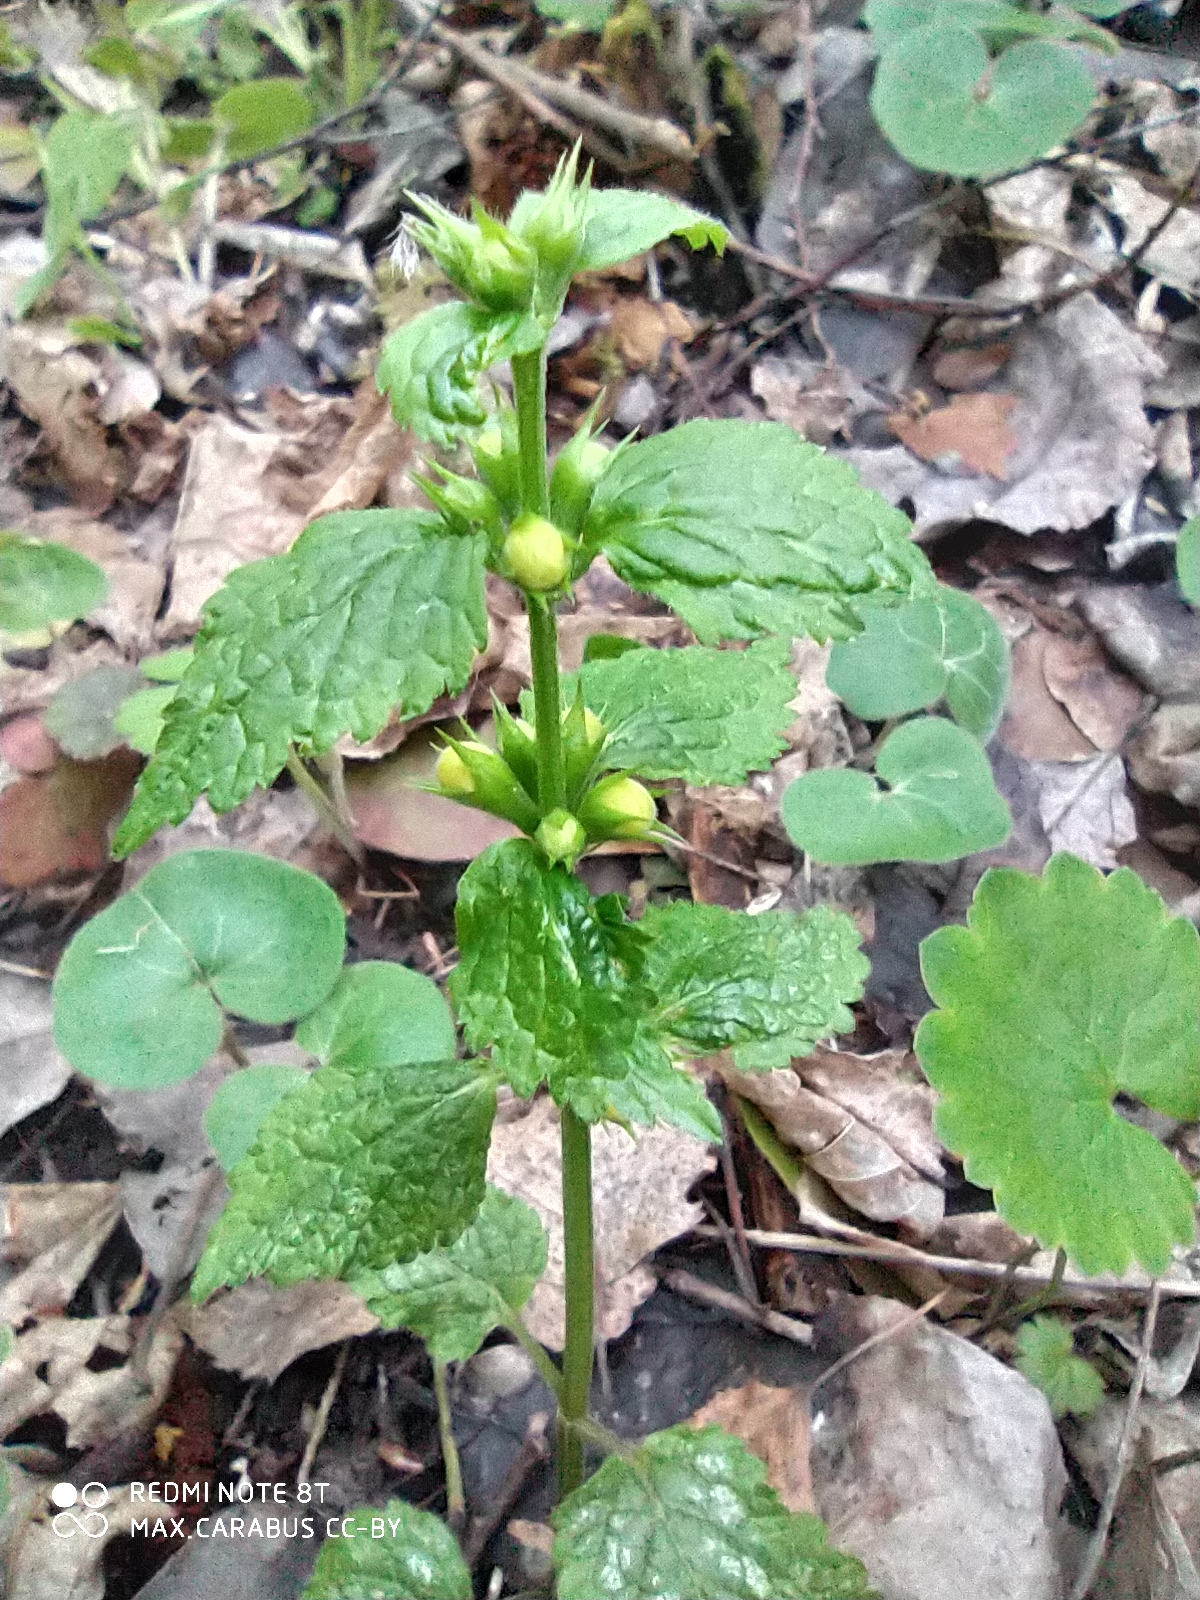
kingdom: Plantae
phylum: Tracheophyta
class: Magnoliopsida
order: Lamiales
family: Lamiaceae
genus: Lamium
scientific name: Lamium galeobdolon
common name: Yellow archangel
